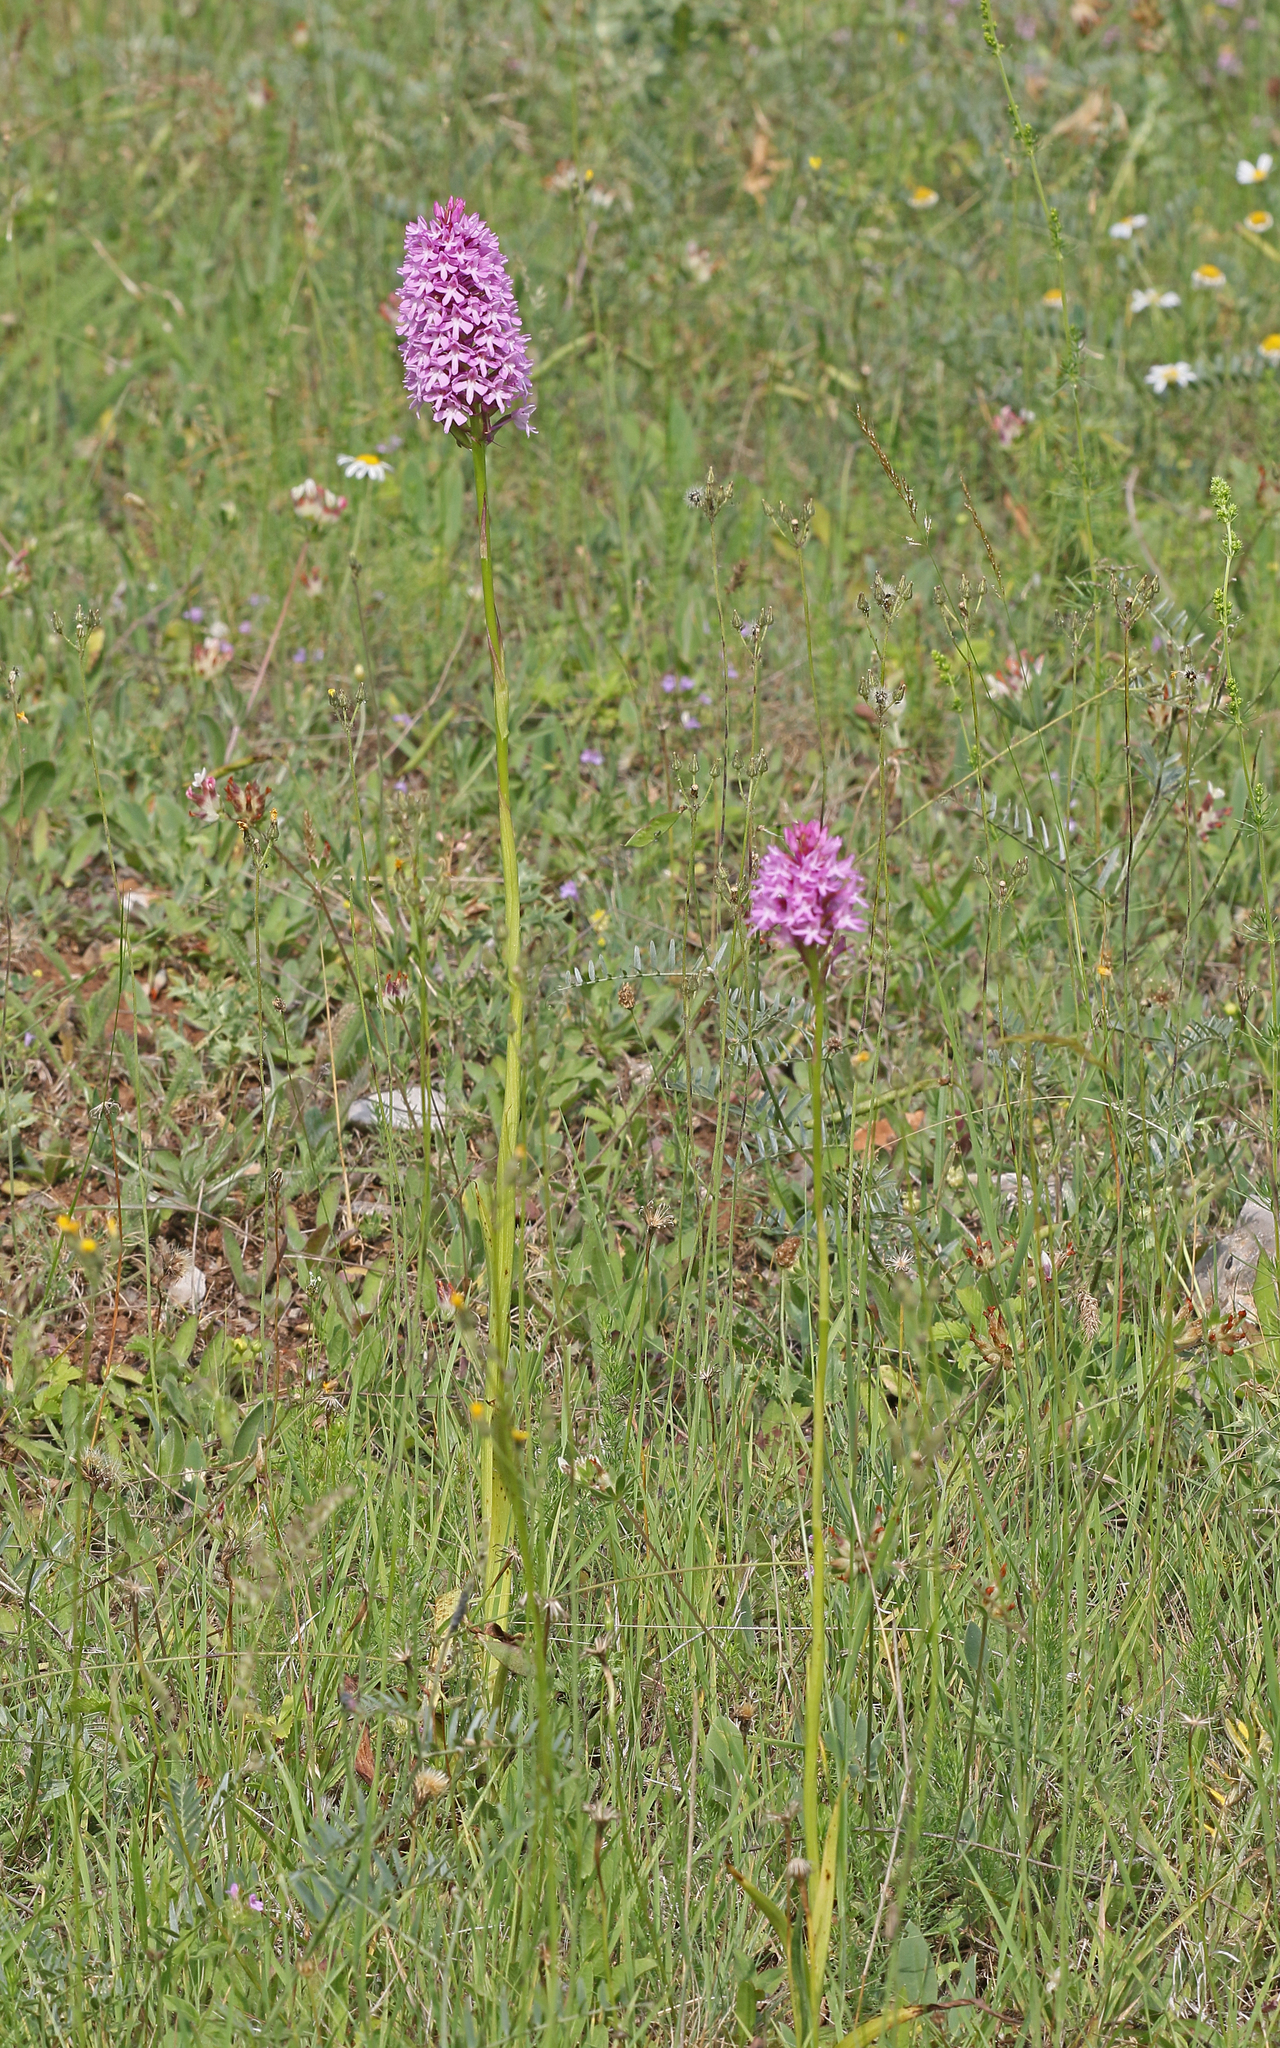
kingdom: Plantae
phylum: Tracheophyta
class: Liliopsida
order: Asparagales
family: Orchidaceae
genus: Anacamptis
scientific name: Anacamptis pyramidalis
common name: Pyramidal orchid
